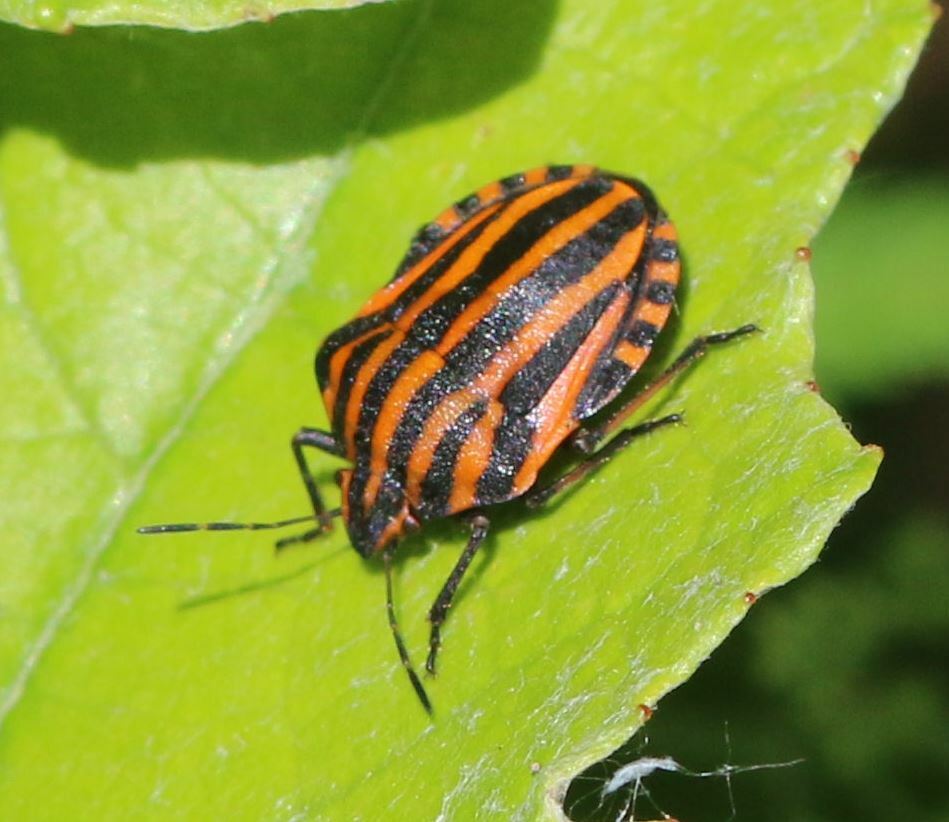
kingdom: Animalia
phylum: Arthropoda
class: Insecta
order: Hemiptera
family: Pentatomidae
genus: Graphosoma
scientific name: Graphosoma italicum
